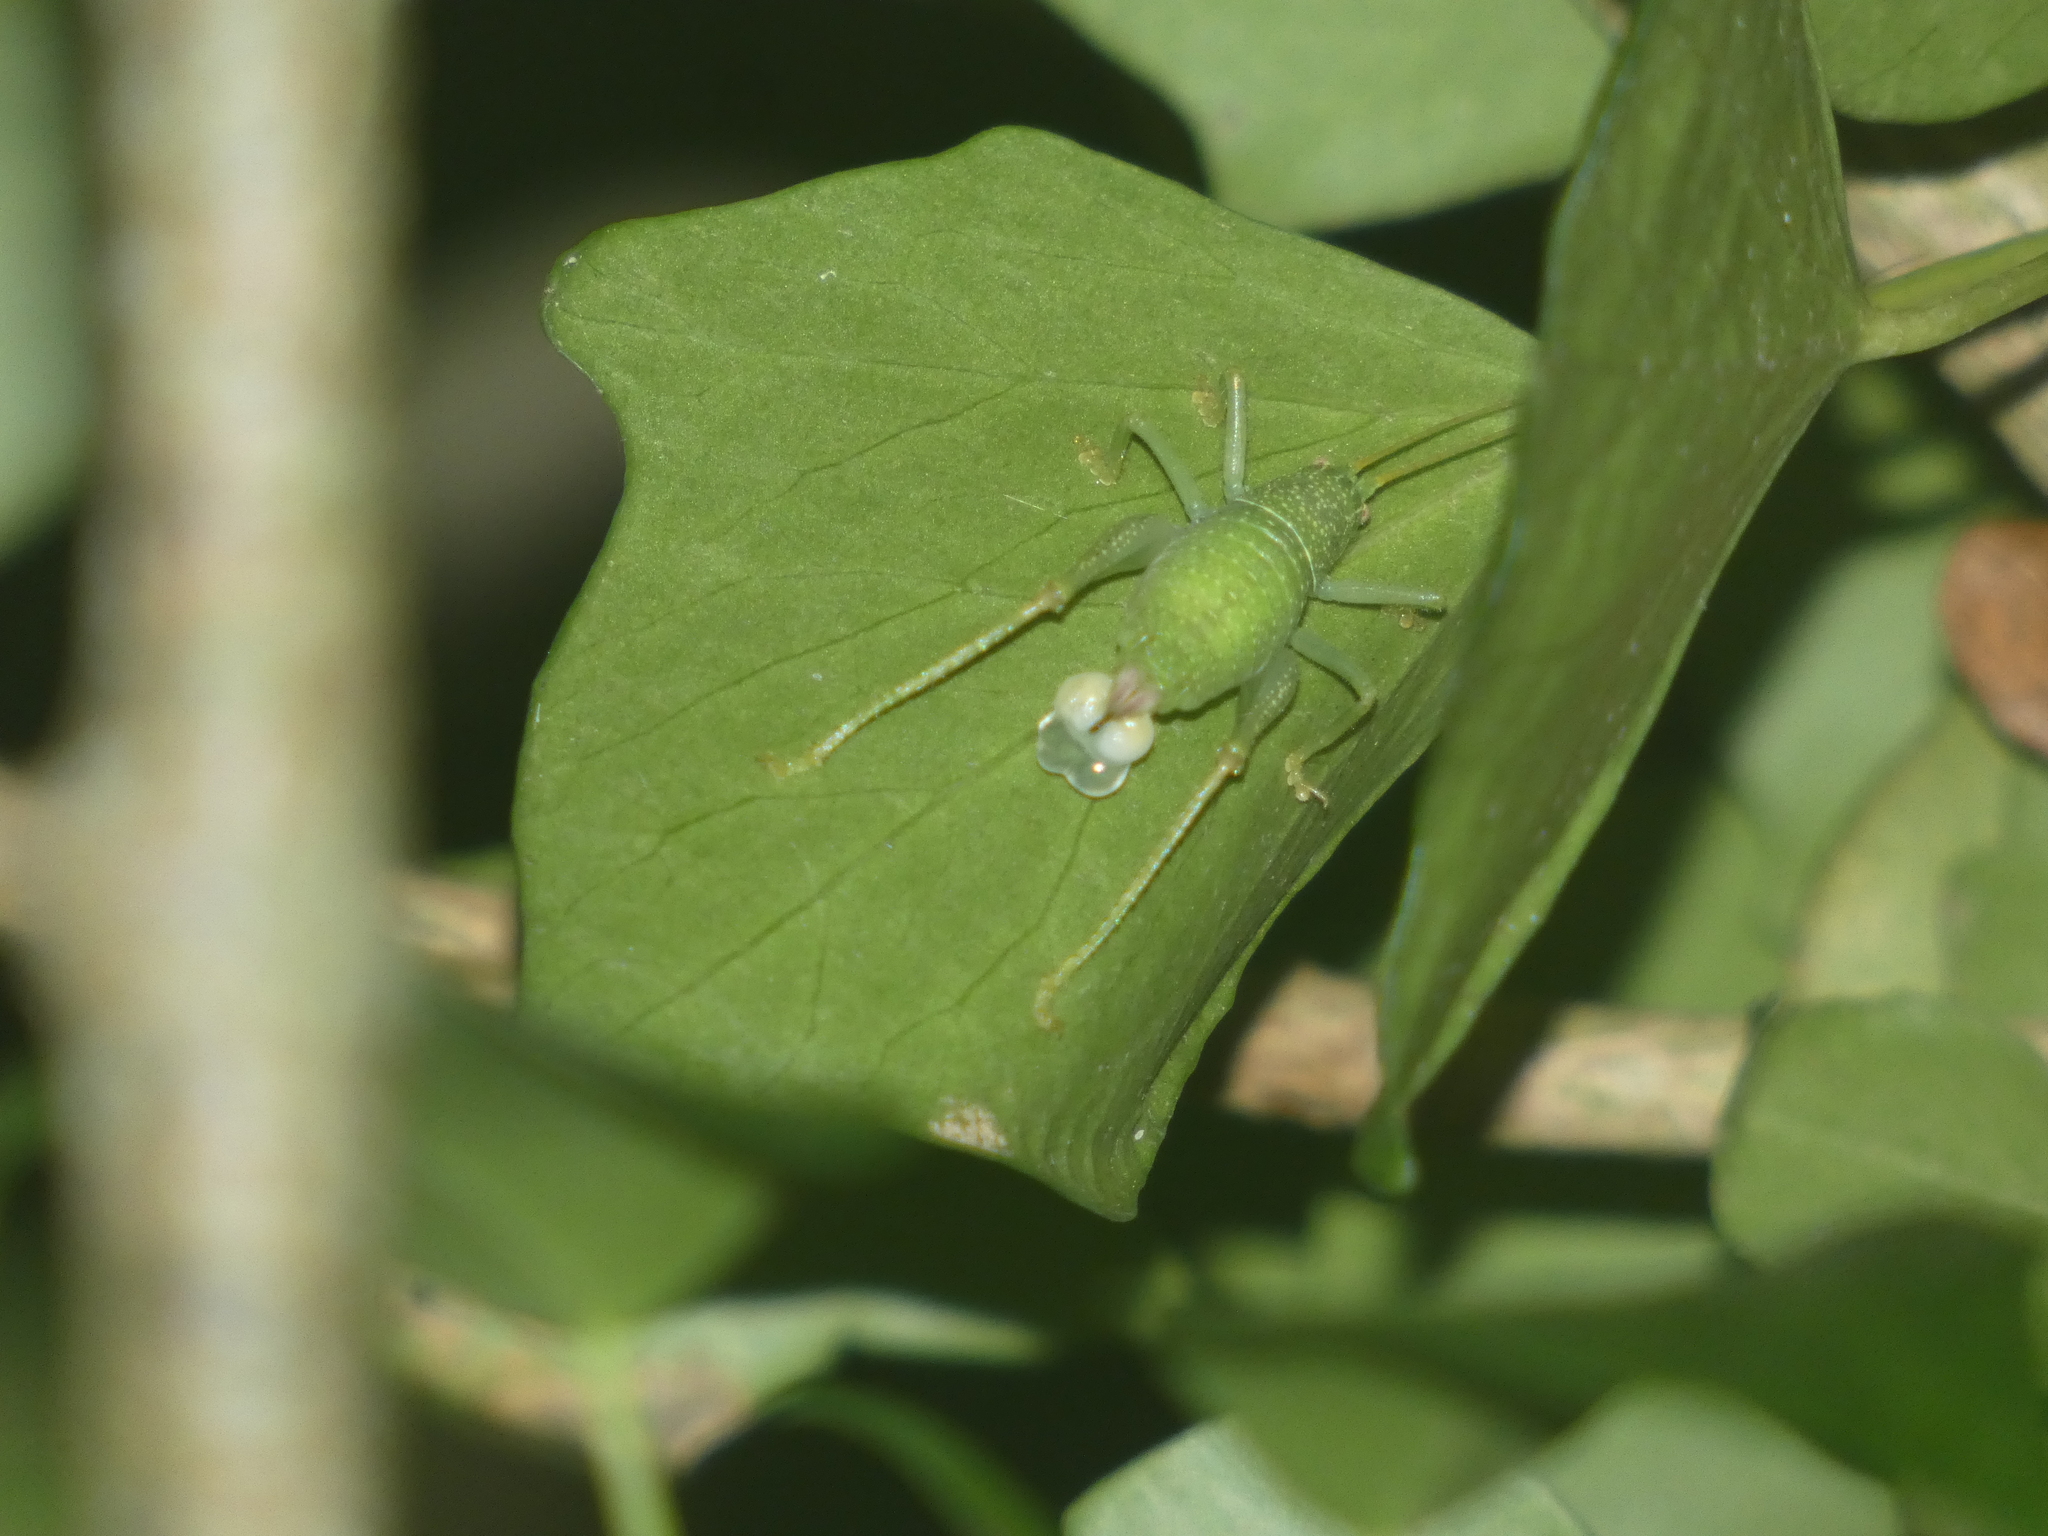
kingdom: Animalia
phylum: Arthropoda
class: Insecta
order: Orthoptera
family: Tettigoniidae
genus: Cyrtaspis
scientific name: Cyrtaspis scutata
